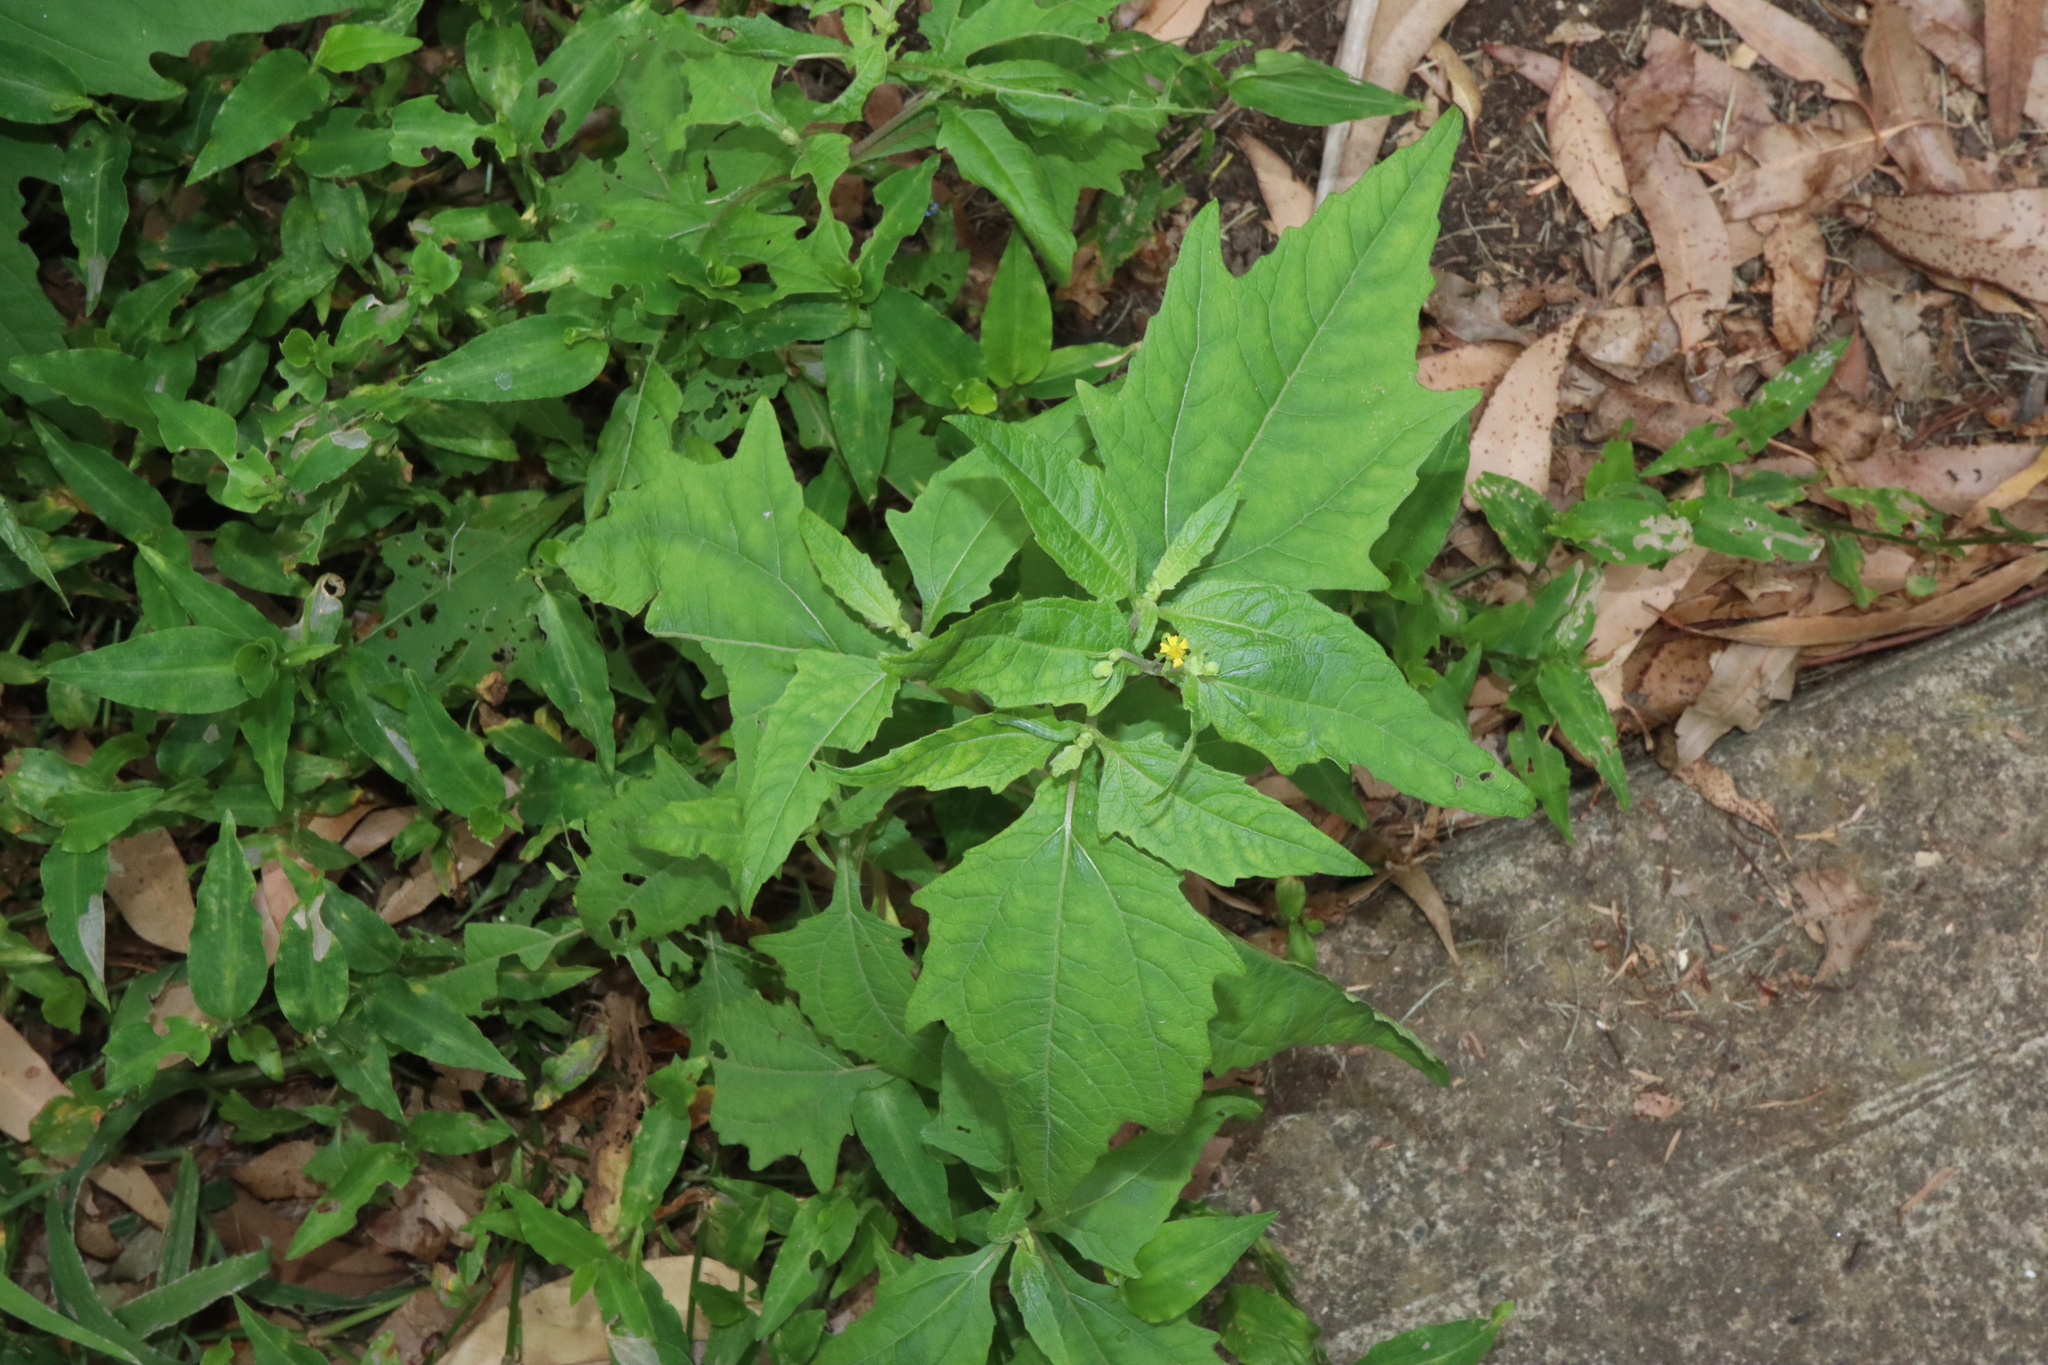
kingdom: Plantae
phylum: Tracheophyta
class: Magnoliopsida
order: Asterales
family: Asteraceae
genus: Sigesbeckia
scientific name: Sigesbeckia orientalis
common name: Eastern st paul's-wort
